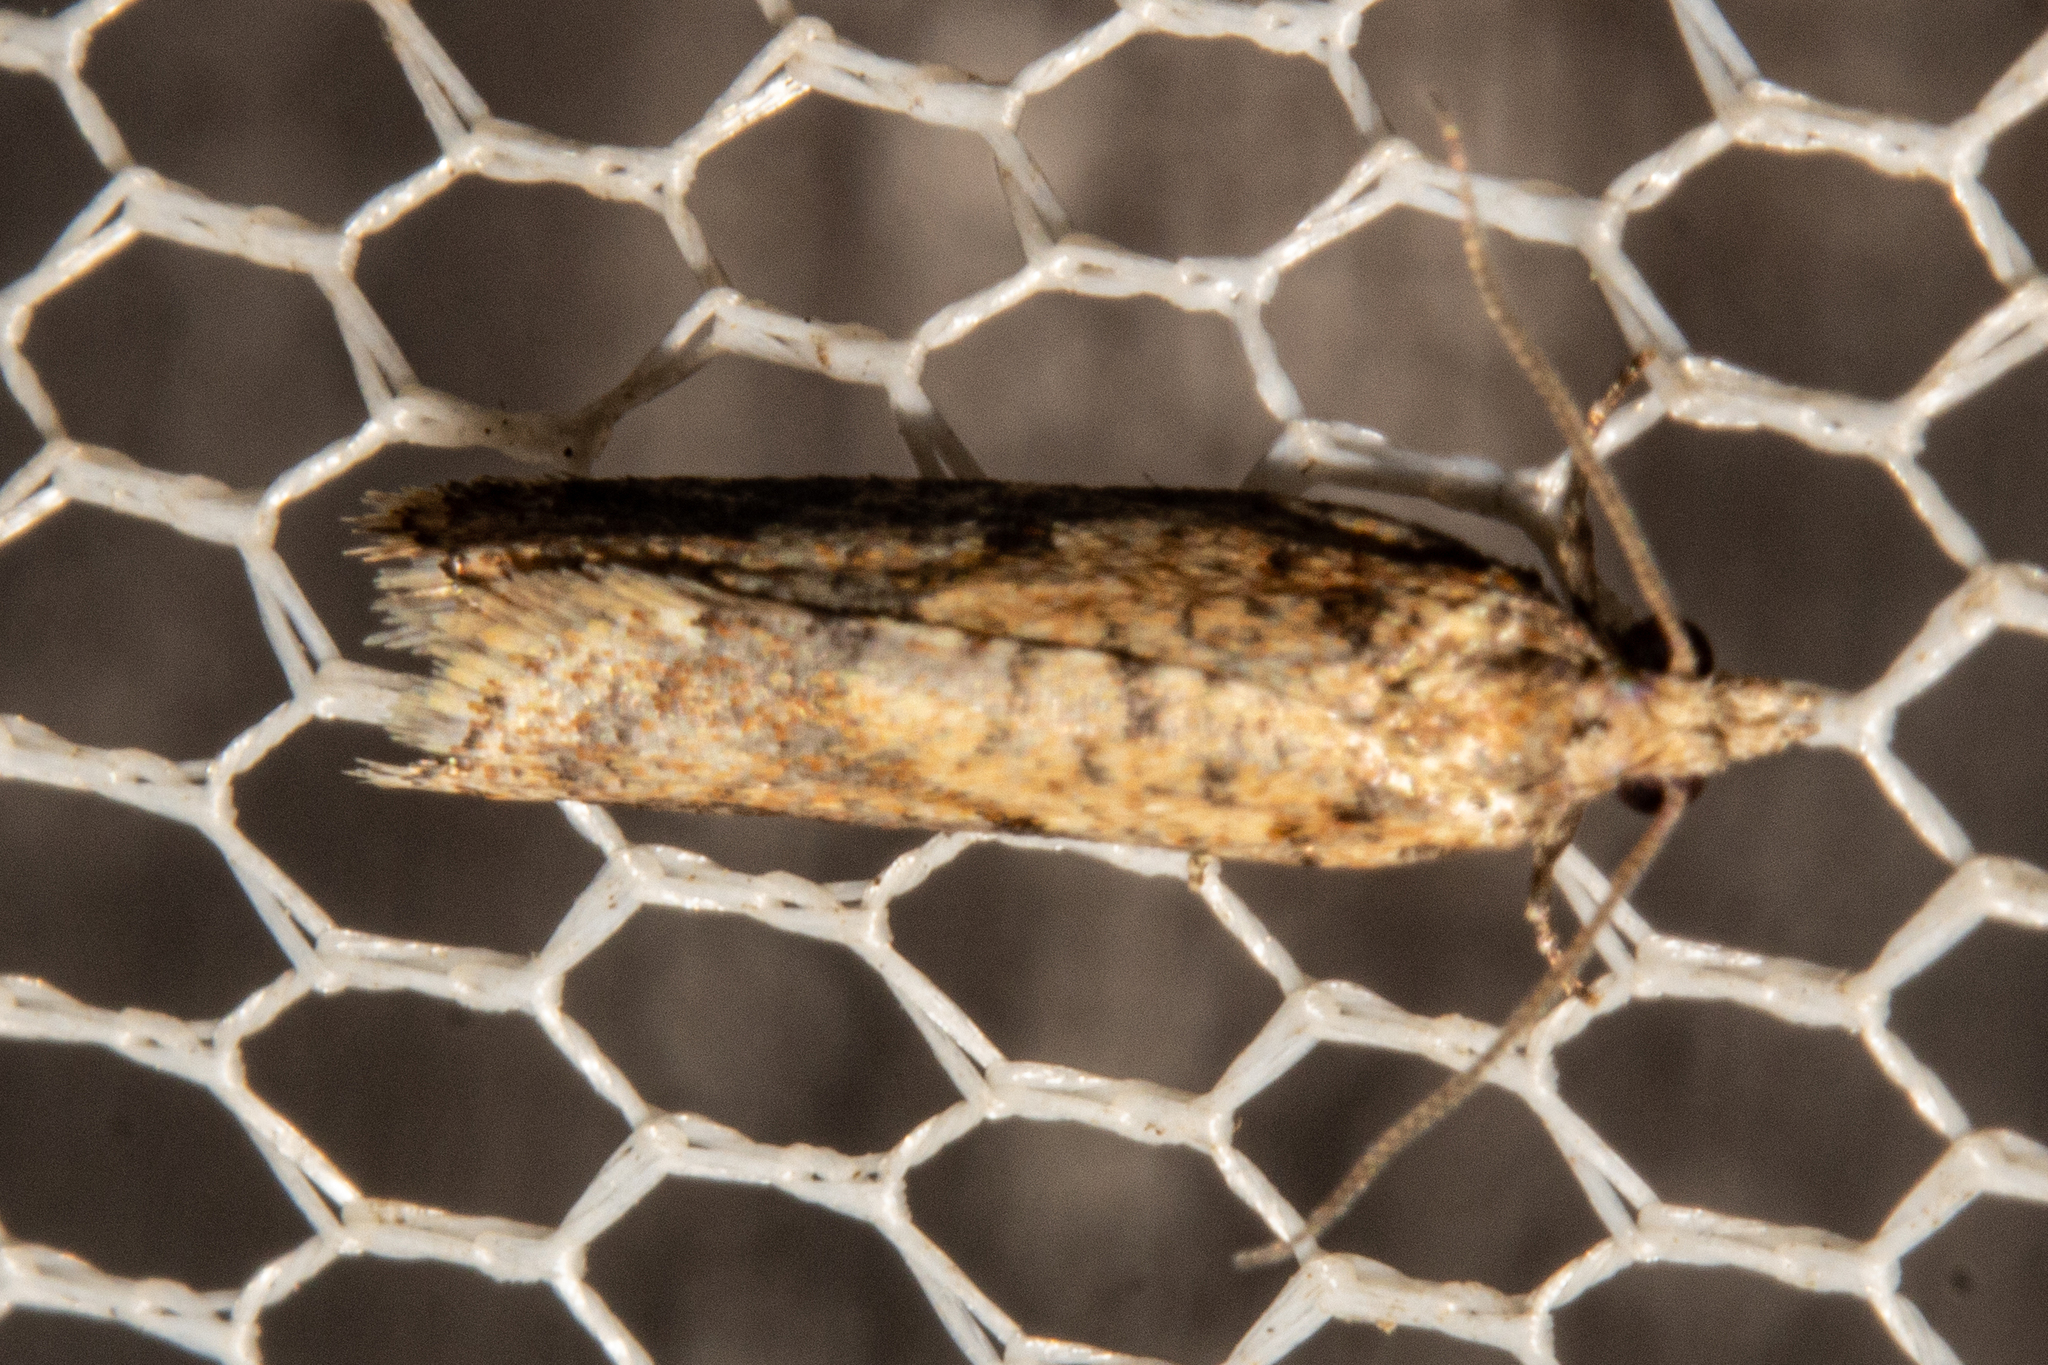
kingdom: Animalia
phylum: Arthropoda
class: Insecta
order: Lepidoptera
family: Tortricidae
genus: Capua
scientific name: Capua semiferana
